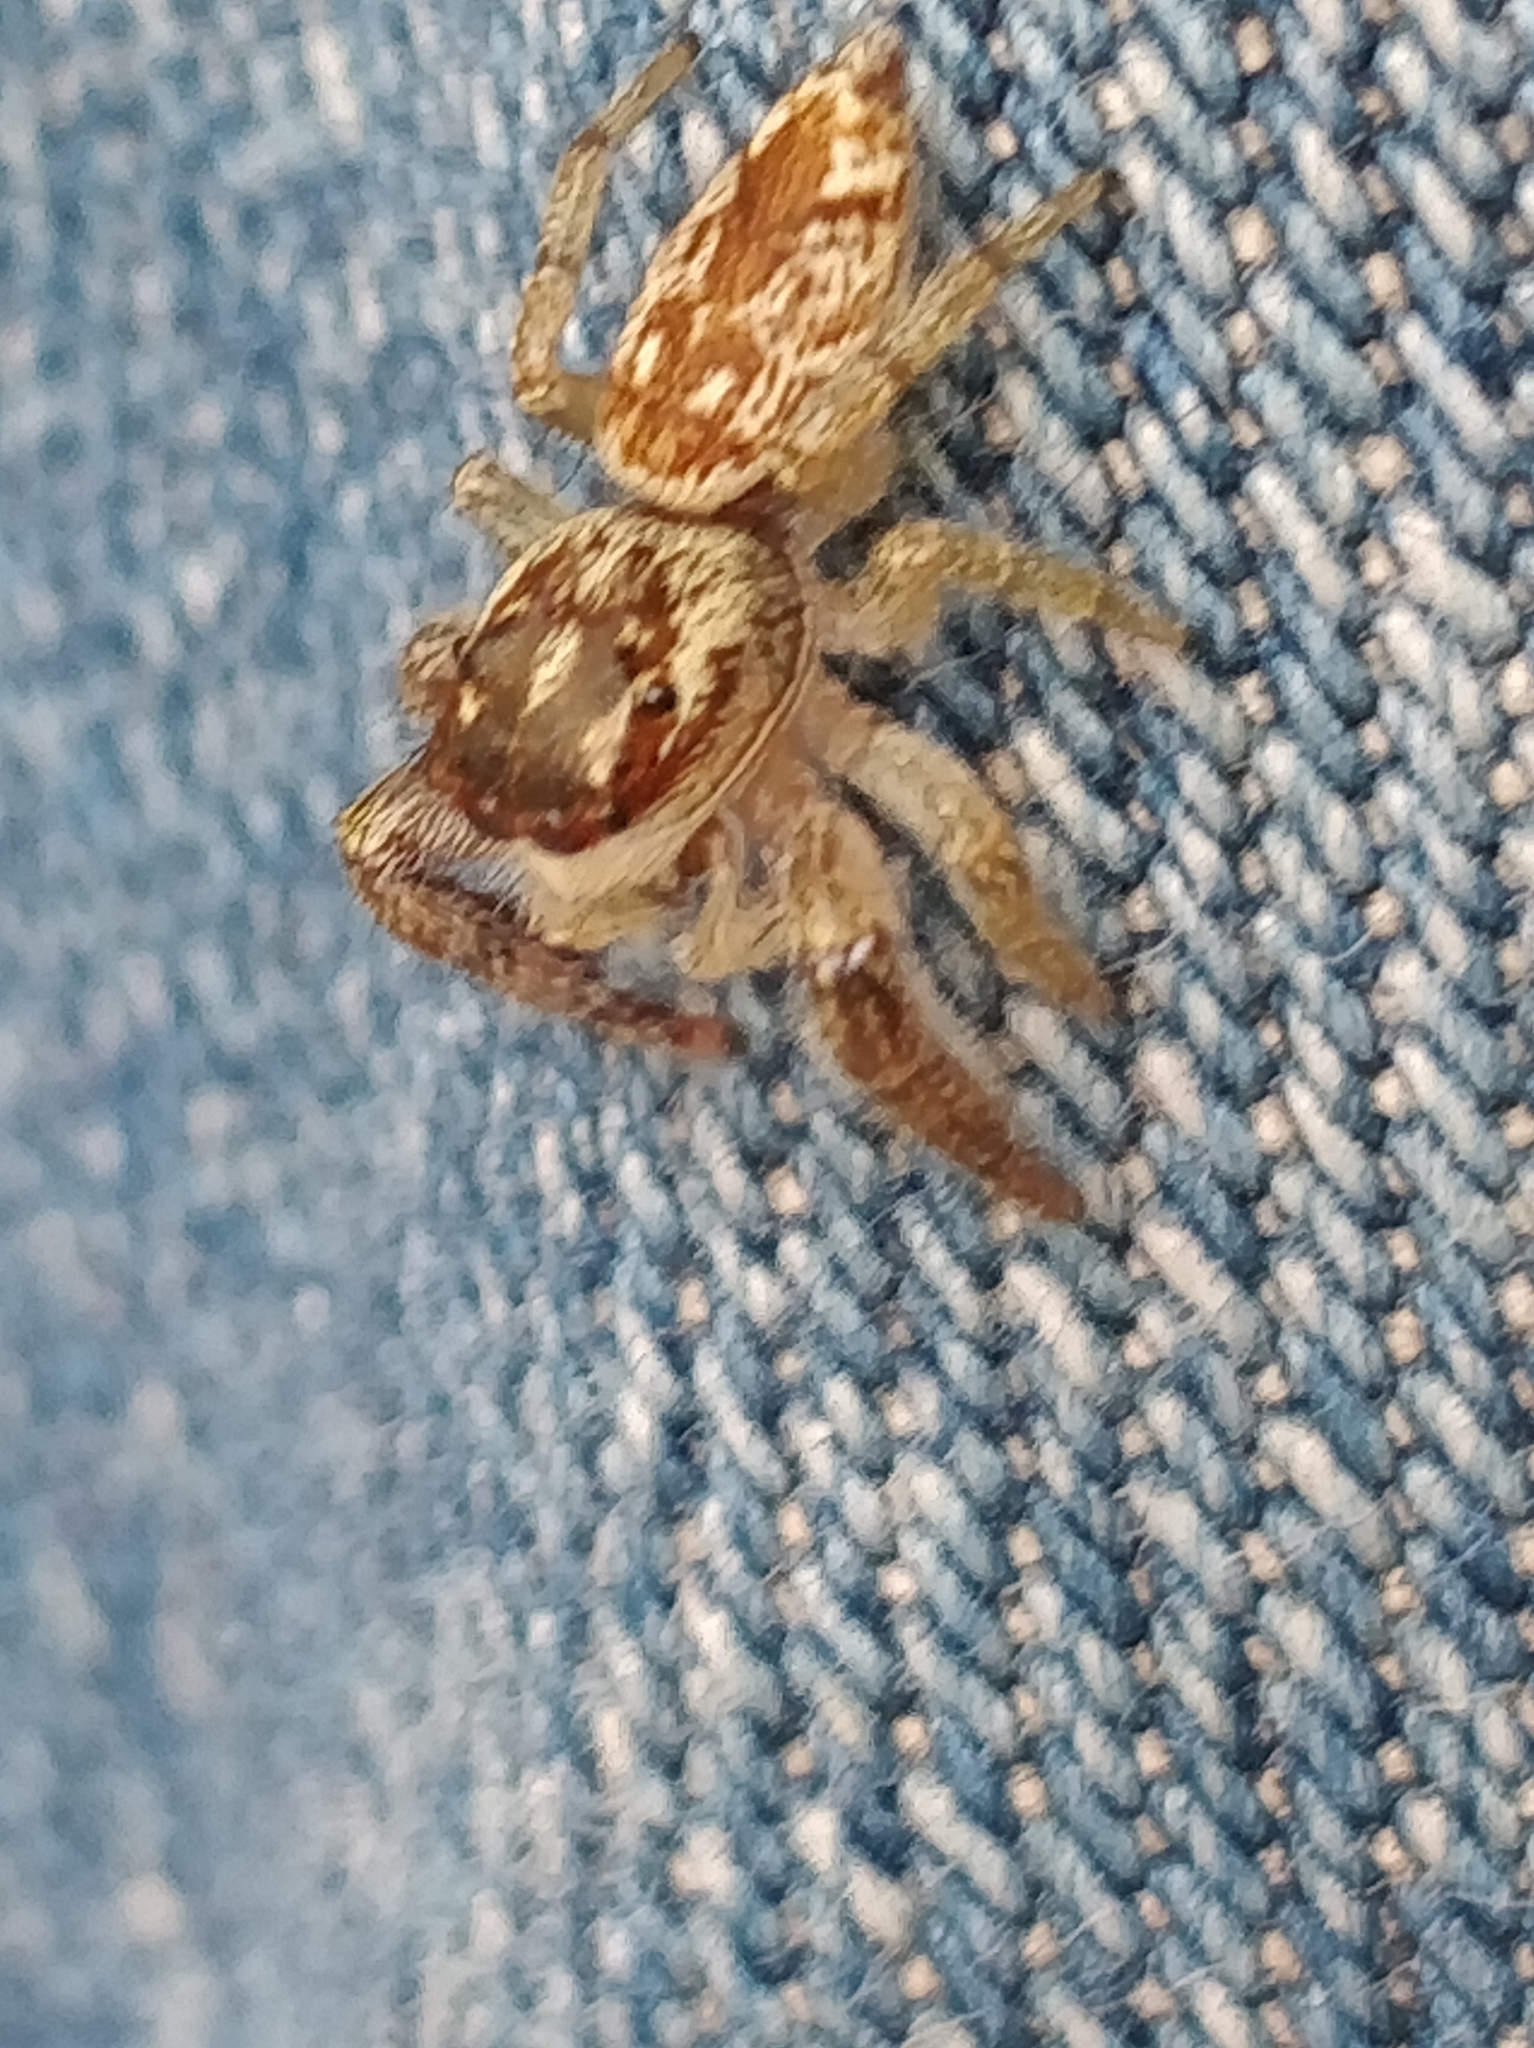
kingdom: Animalia
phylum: Arthropoda
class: Arachnida
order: Araneae
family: Salticidae
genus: Macaroeris
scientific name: Macaroeris diligens
